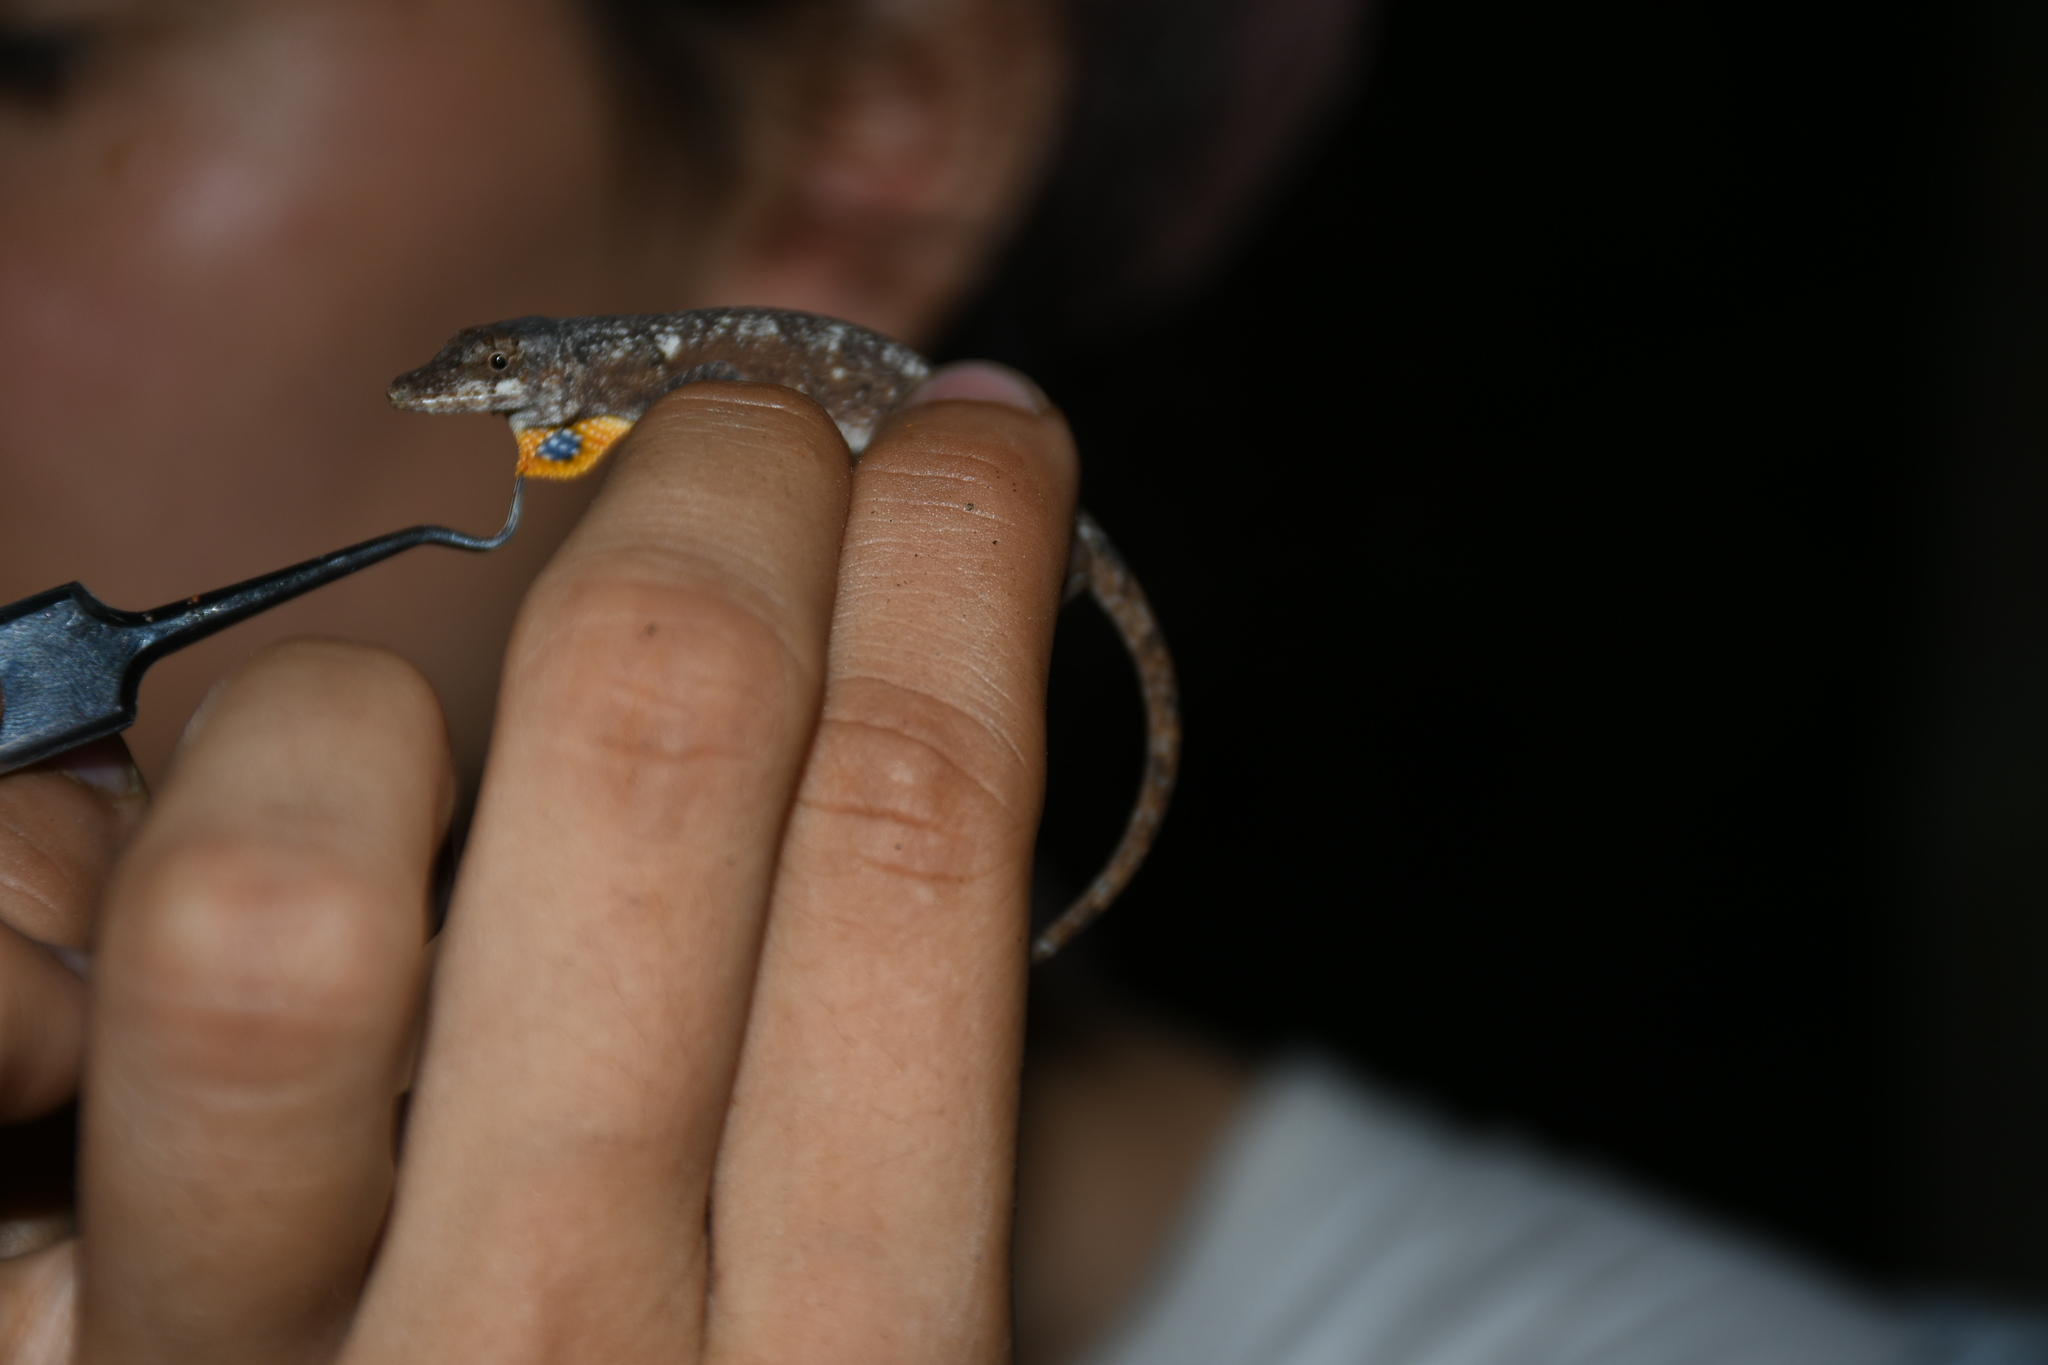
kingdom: Animalia
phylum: Chordata
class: Squamata
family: Dactyloidae
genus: Anolis
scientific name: Anolis ustus
